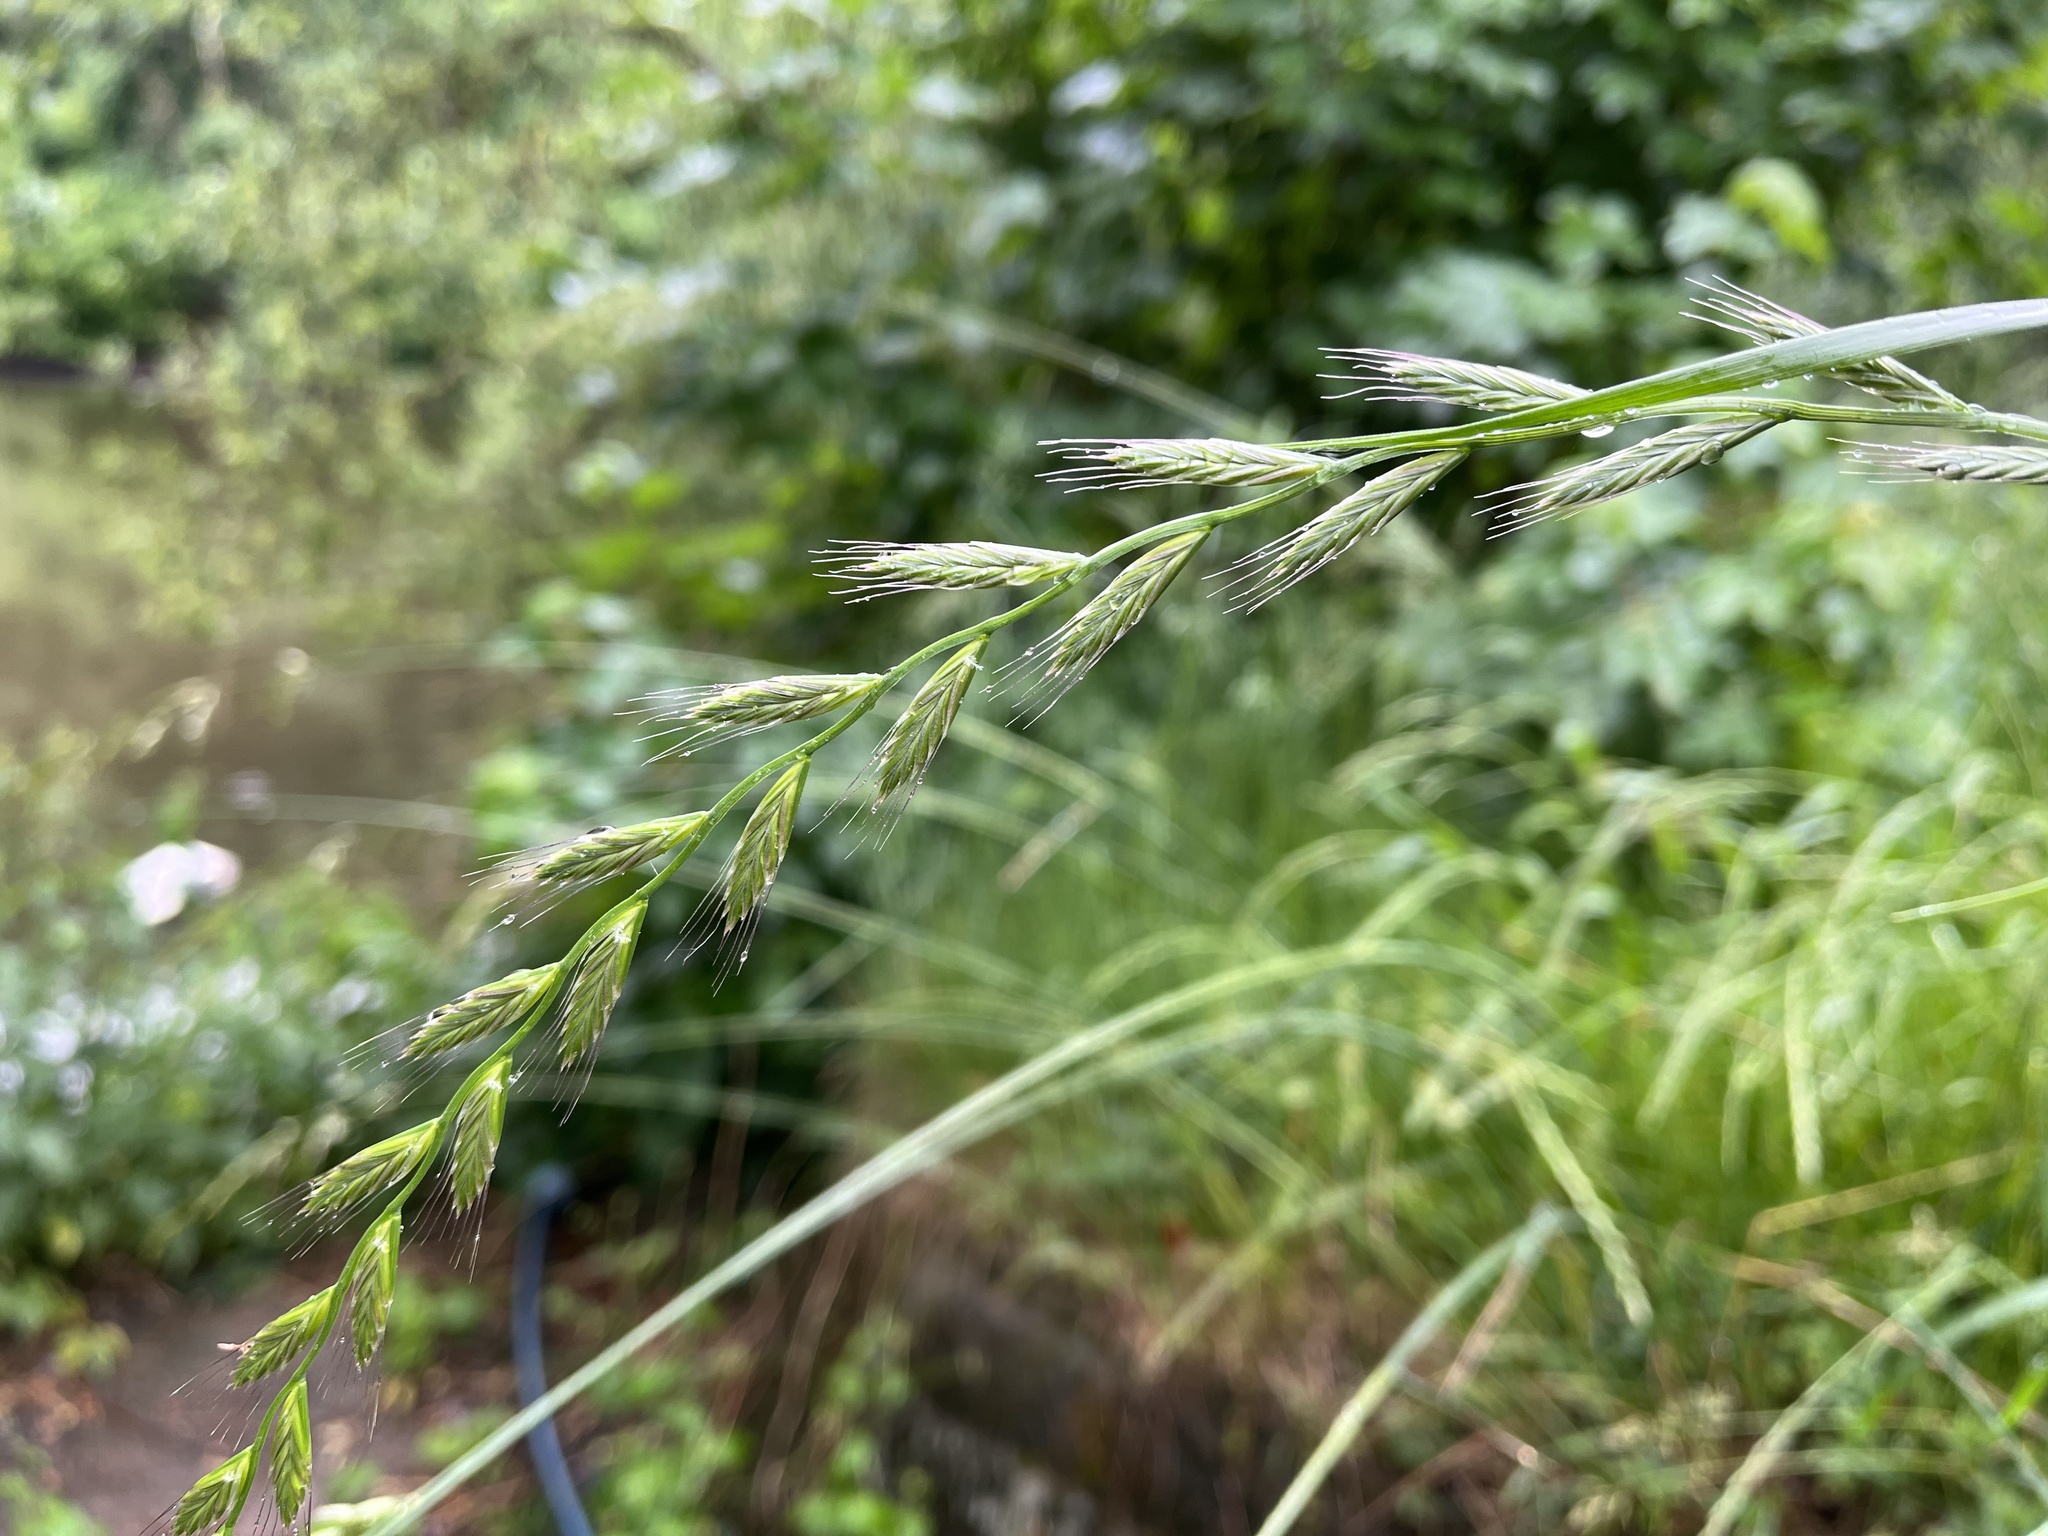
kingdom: Plantae
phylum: Tracheophyta
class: Liliopsida
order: Poales
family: Poaceae
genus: Lolium
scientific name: Lolium multiflorum
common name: Annual ryegrass
